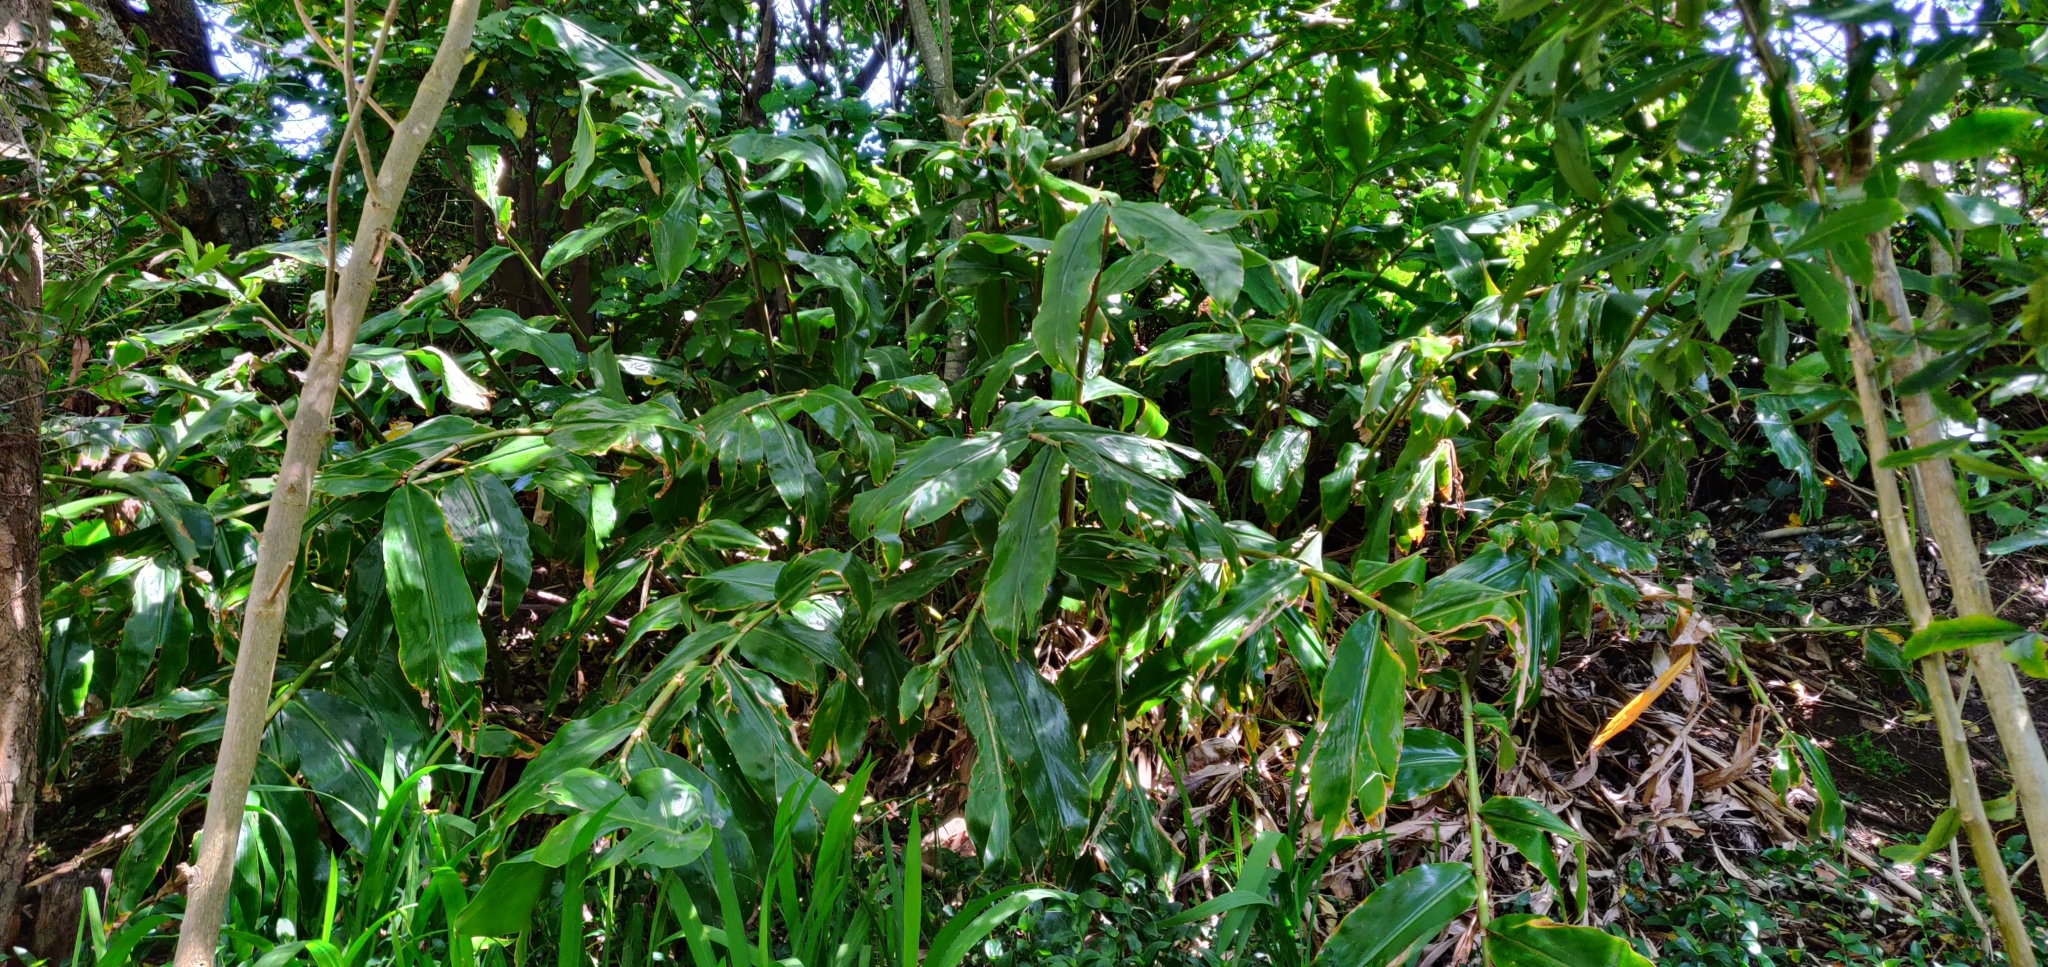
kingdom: Plantae
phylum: Tracheophyta
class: Liliopsida
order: Zingiberales
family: Zingiberaceae
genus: Hedychium
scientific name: Hedychium gardnerianum
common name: Himalayan ginger
